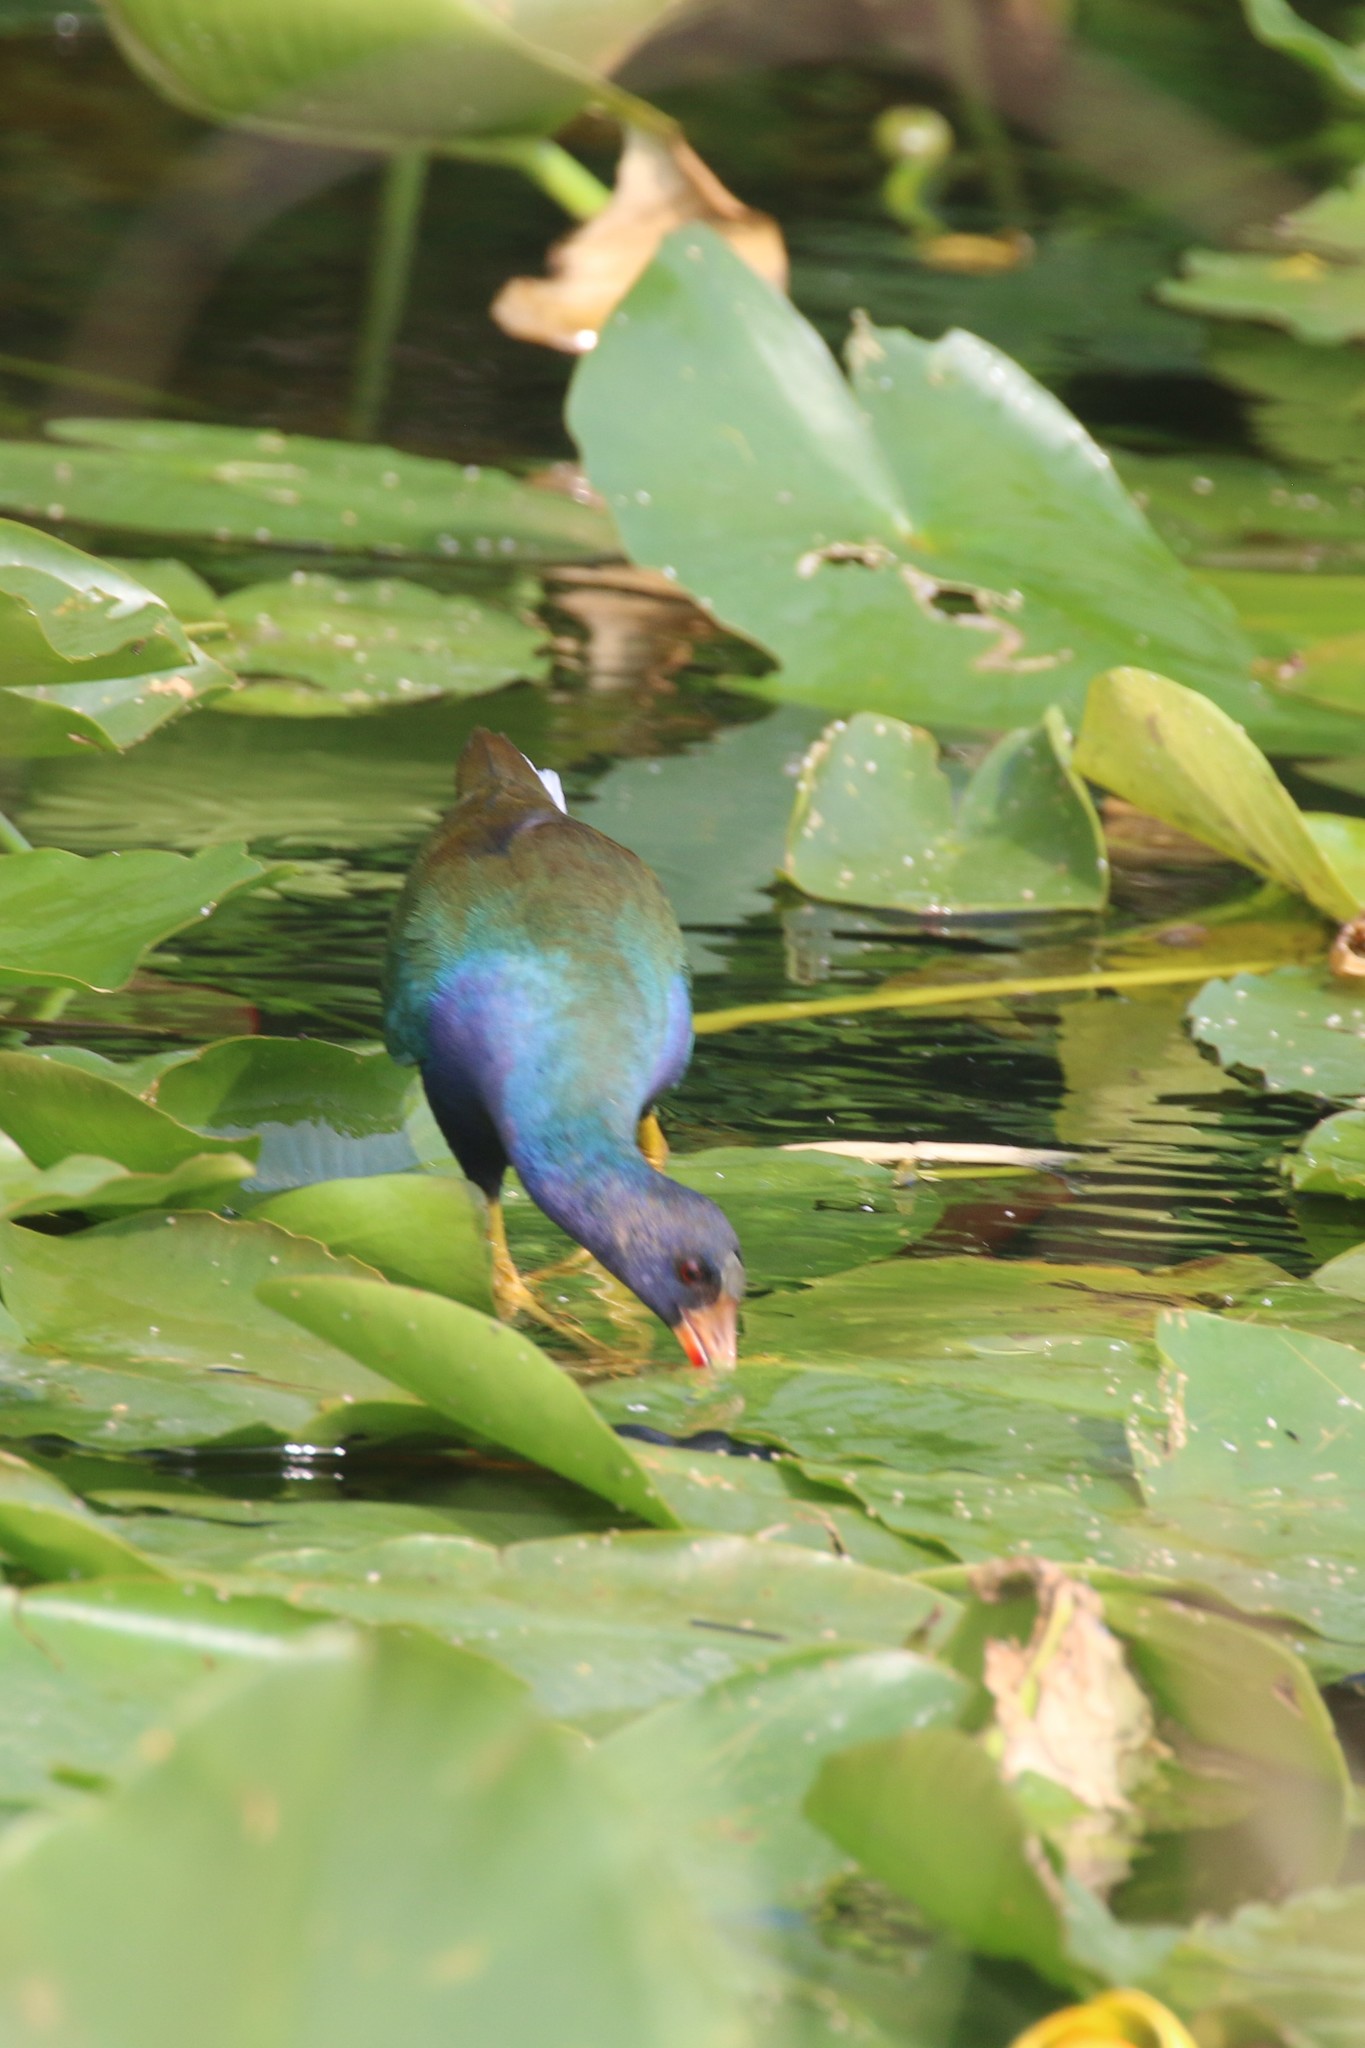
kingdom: Animalia
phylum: Chordata
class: Aves
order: Gruiformes
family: Rallidae
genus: Porphyrio
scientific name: Porphyrio martinica
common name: Purple gallinule
